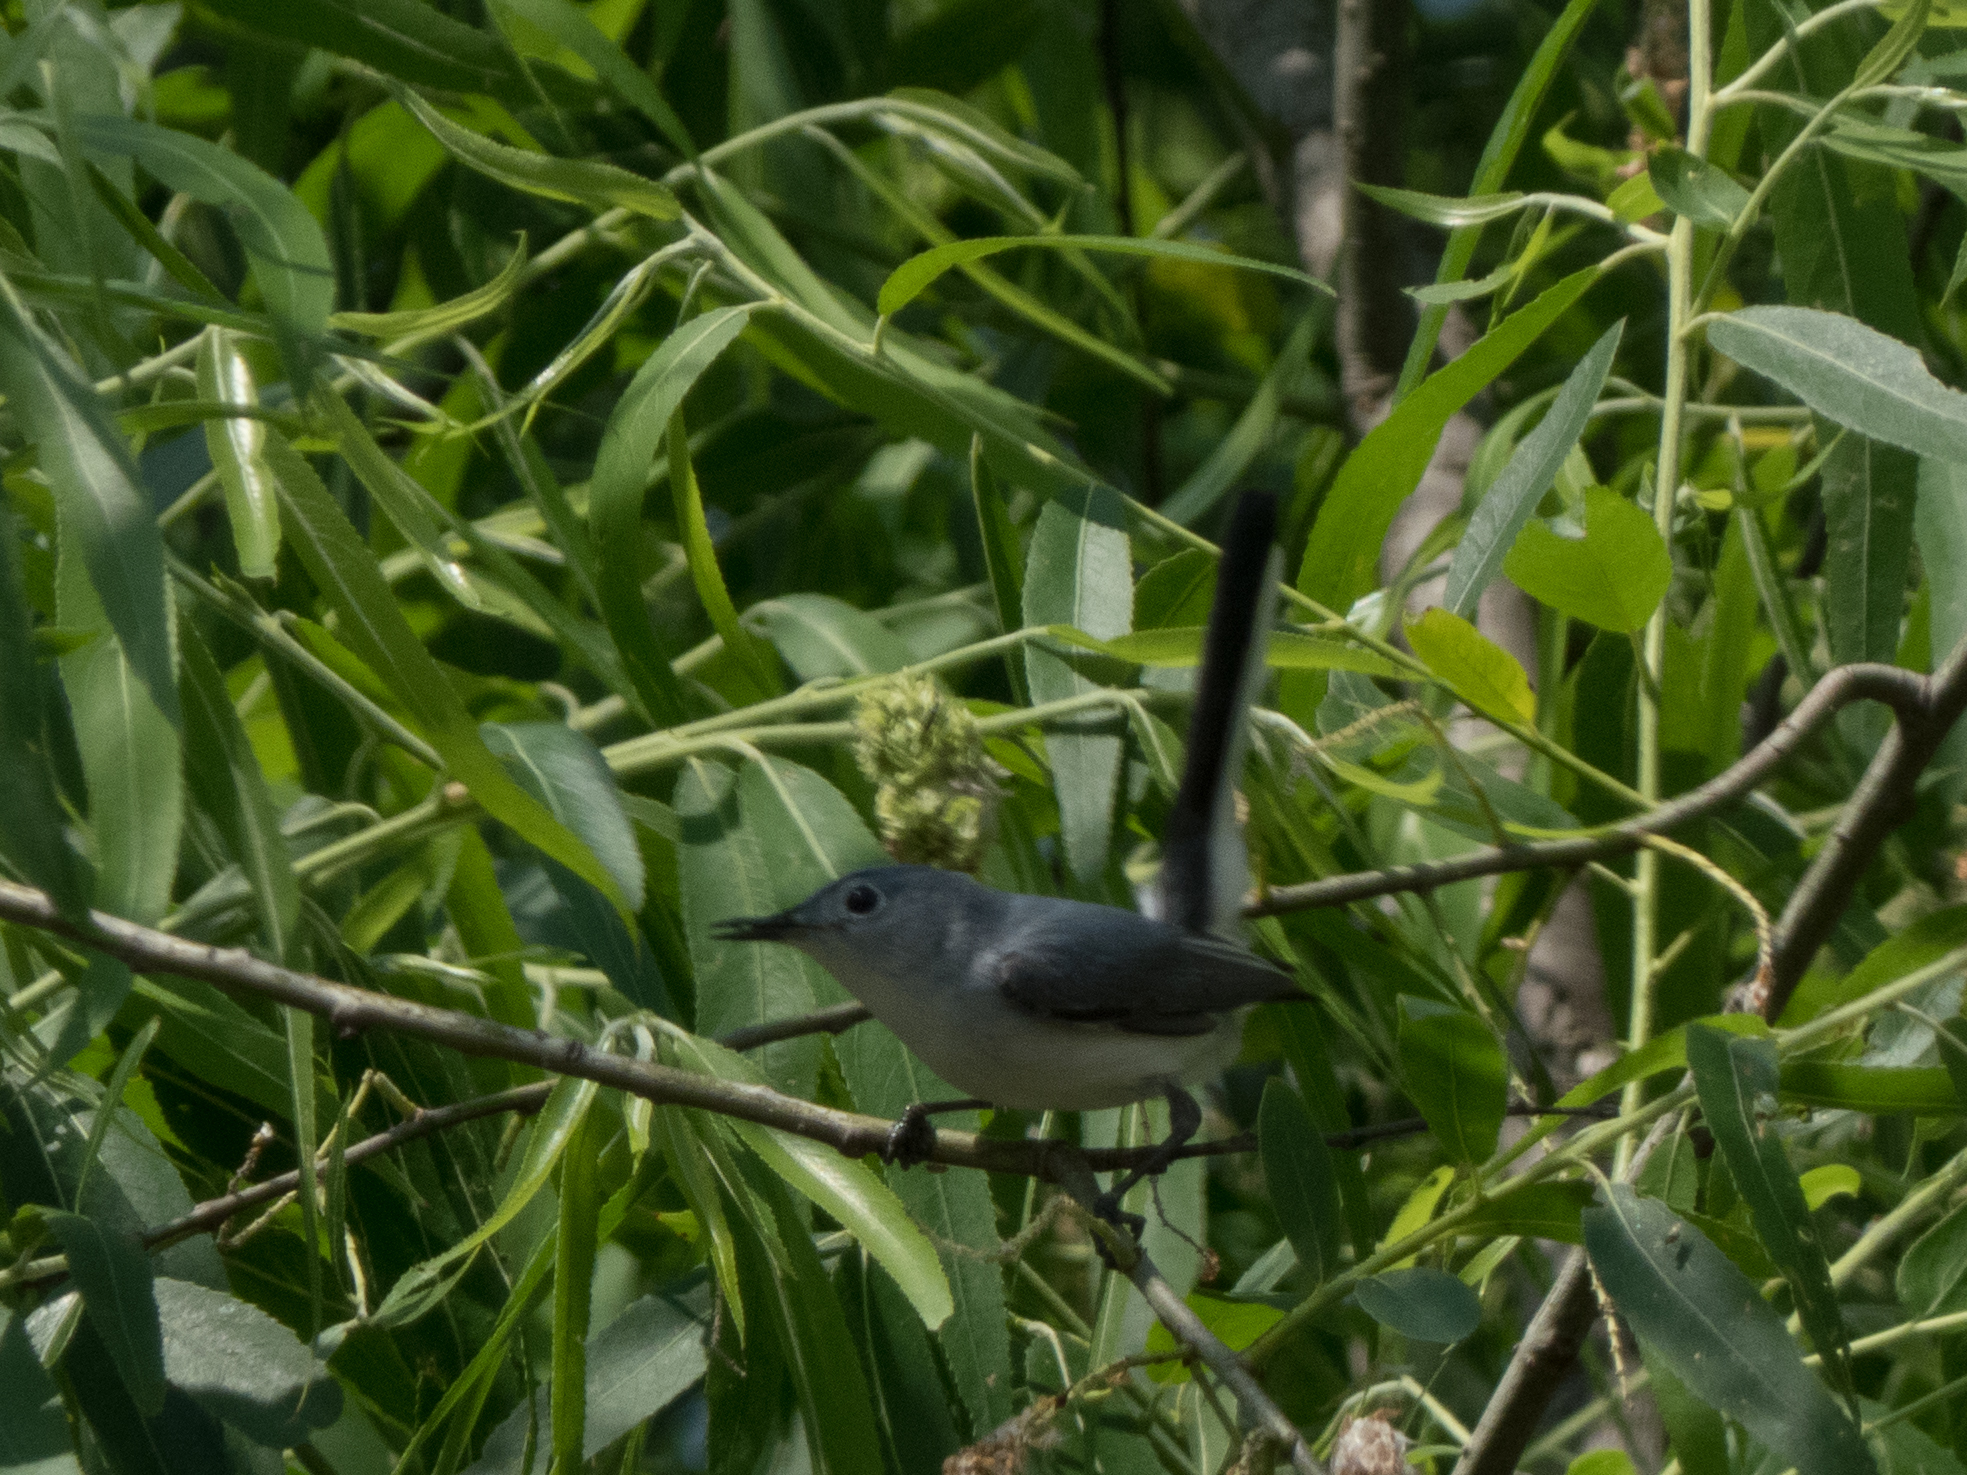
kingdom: Animalia
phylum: Chordata
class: Aves
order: Passeriformes
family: Polioptilidae
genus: Polioptila
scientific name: Polioptila caerulea
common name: Blue-gray gnatcatcher
